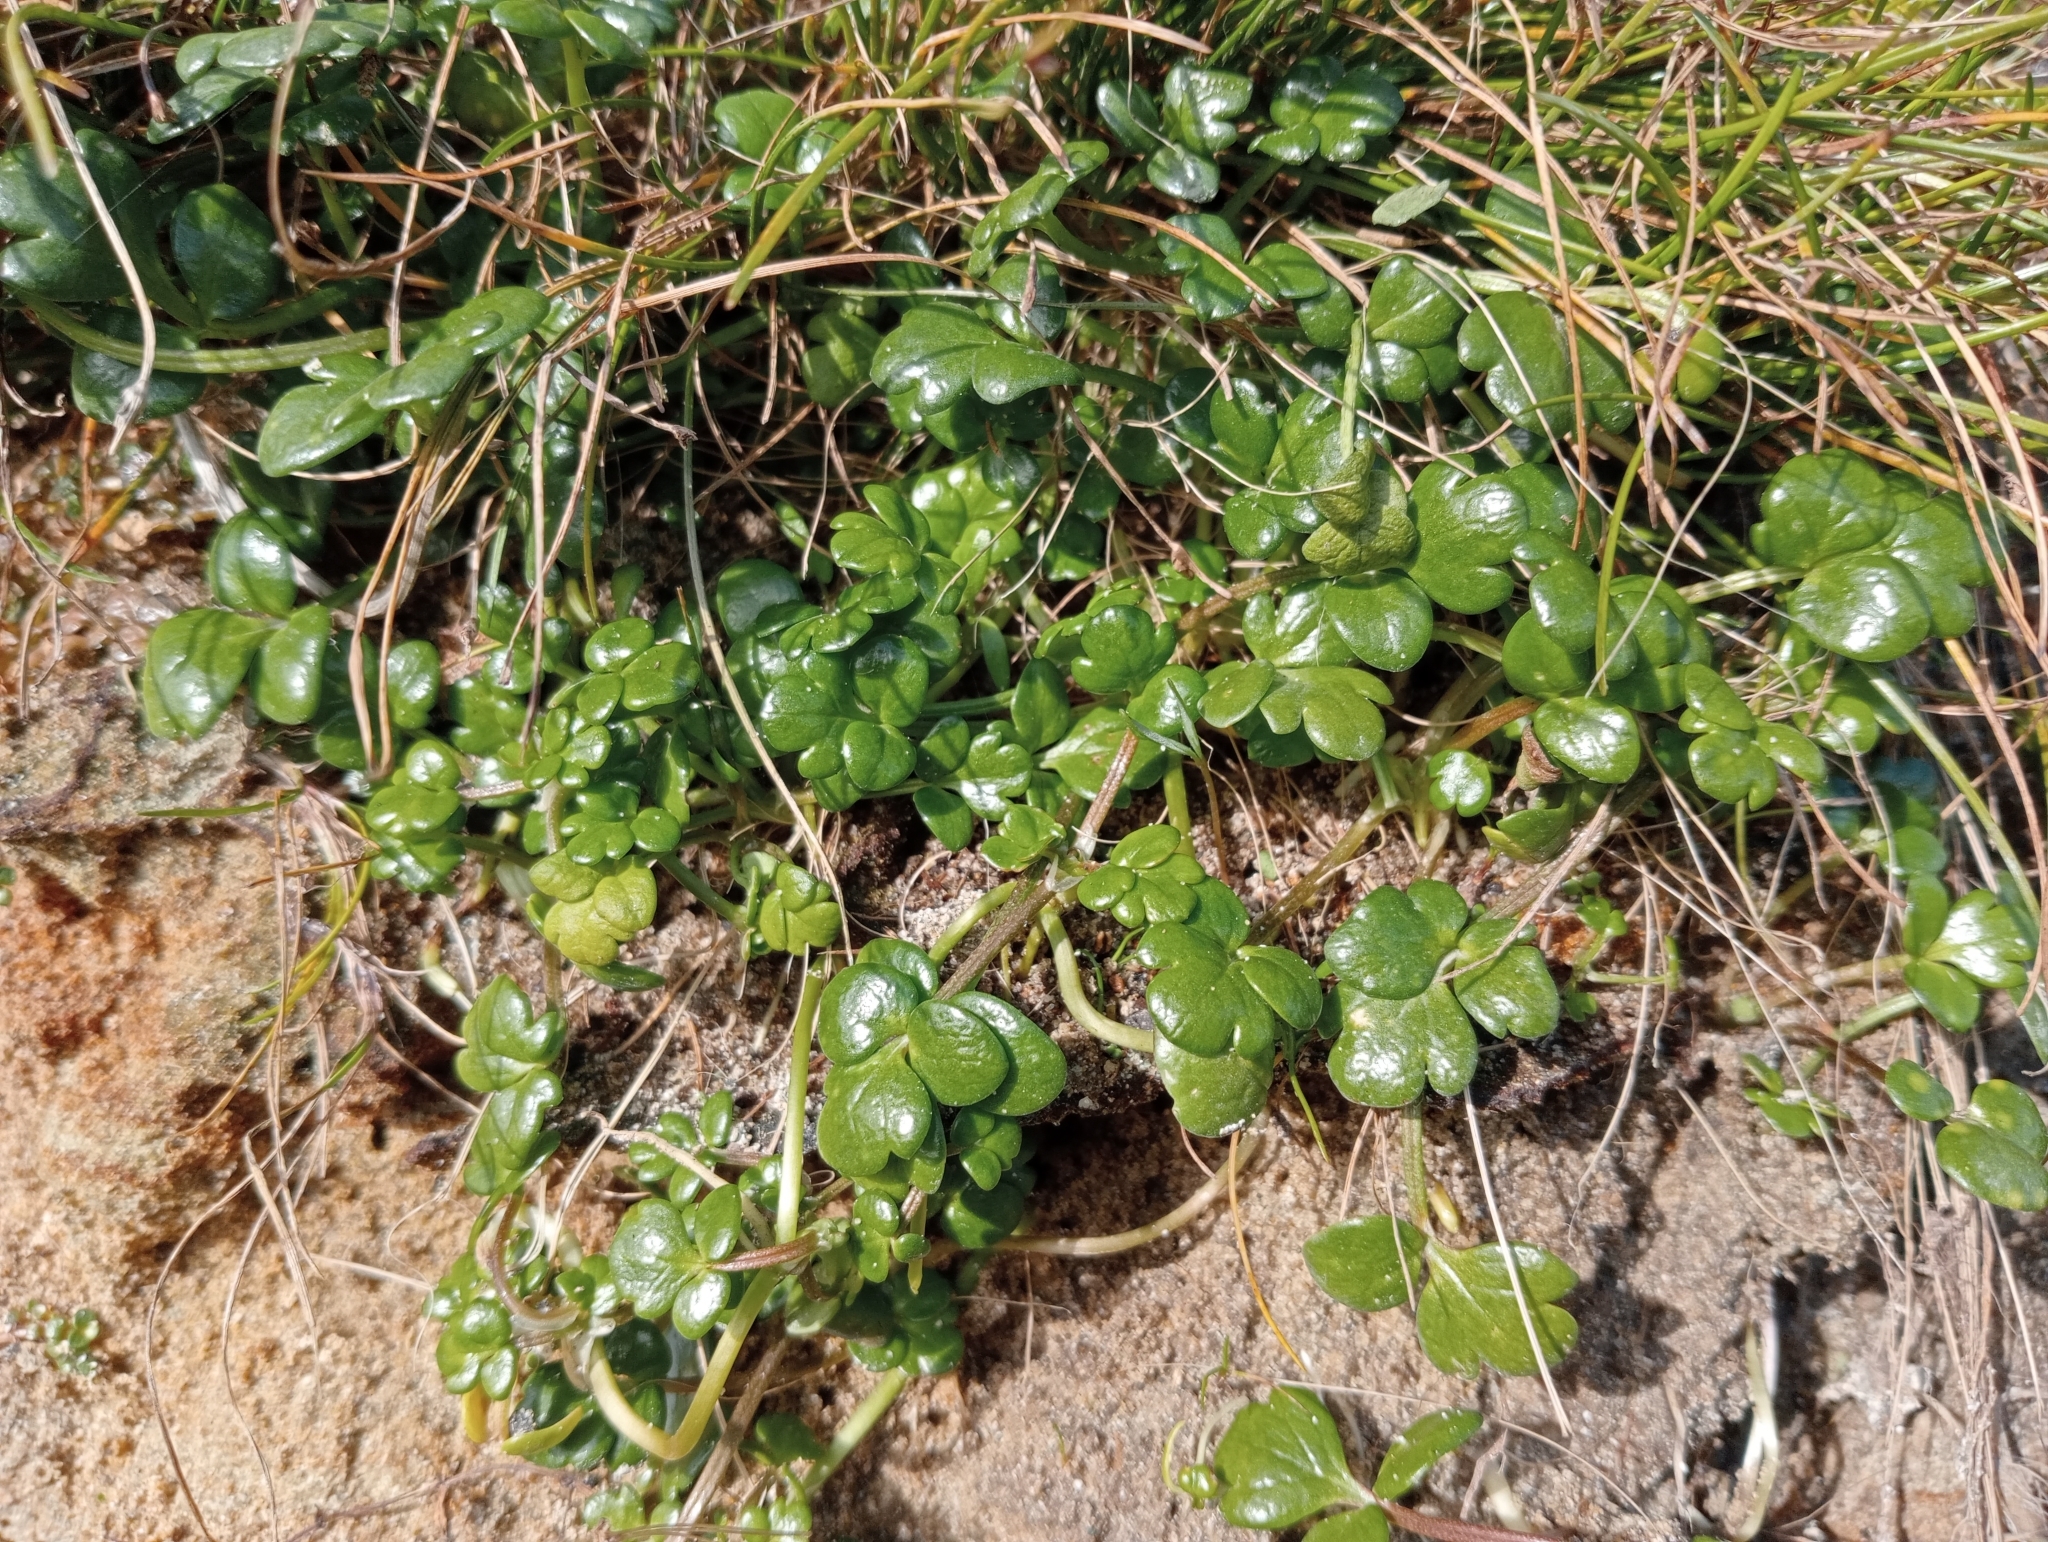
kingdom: Plantae
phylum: Tracheophyta
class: Magnoliopsida
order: Ranunculales
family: Ranunculaceae
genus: Ranunculus
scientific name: Ranunculus acaulis
